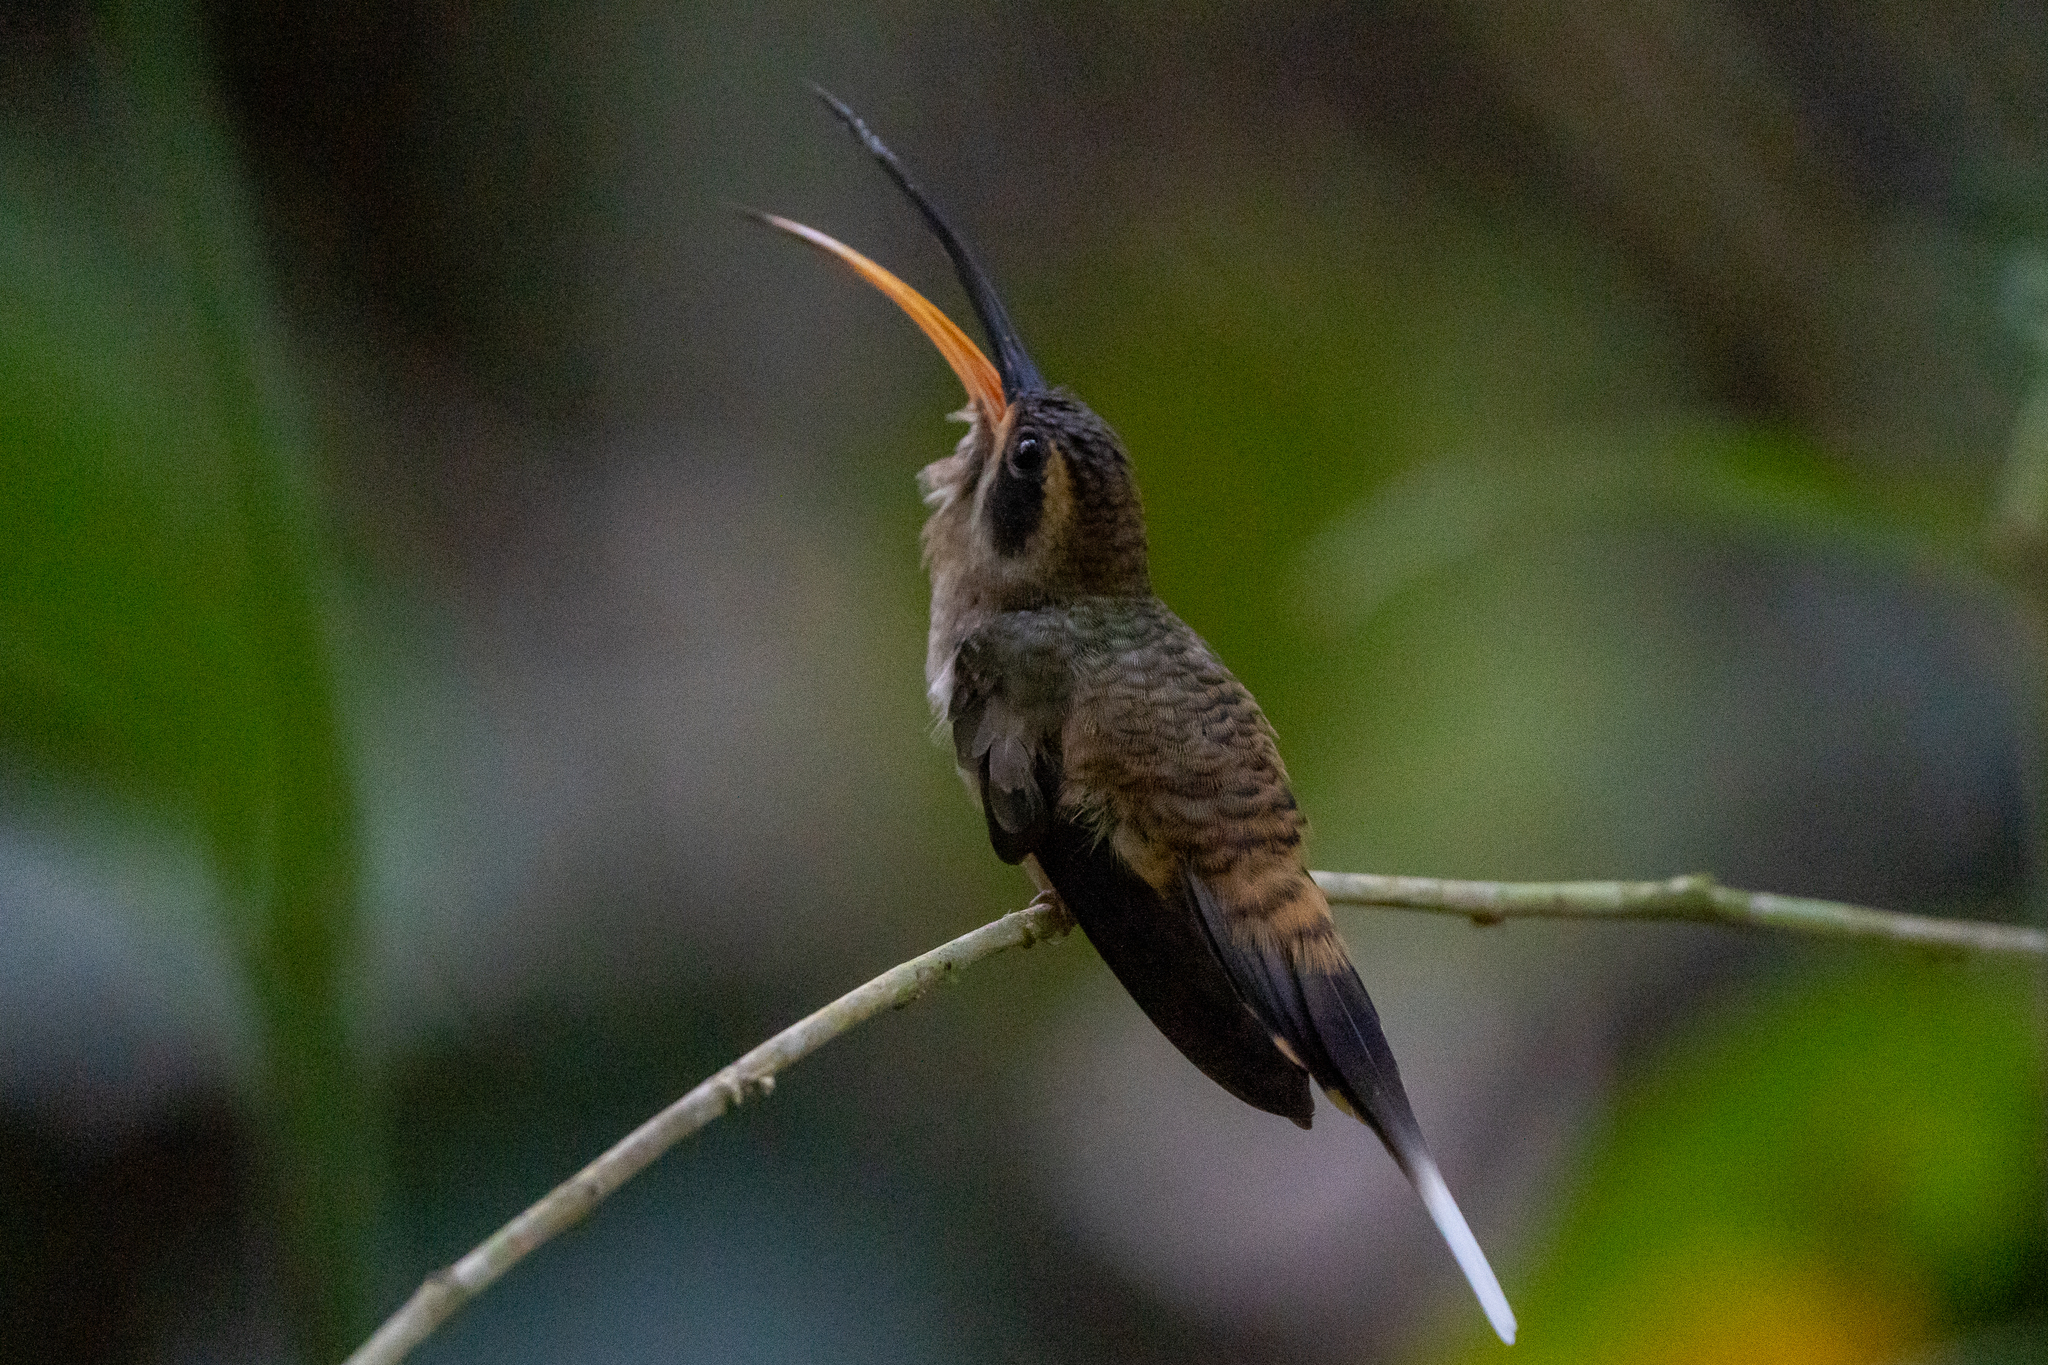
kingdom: Animalia
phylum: Chordata
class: Aves
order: Apodiformes
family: Trochilidae
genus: Phaethornis
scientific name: Phaethornis longirostris
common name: Long-billed hermit
